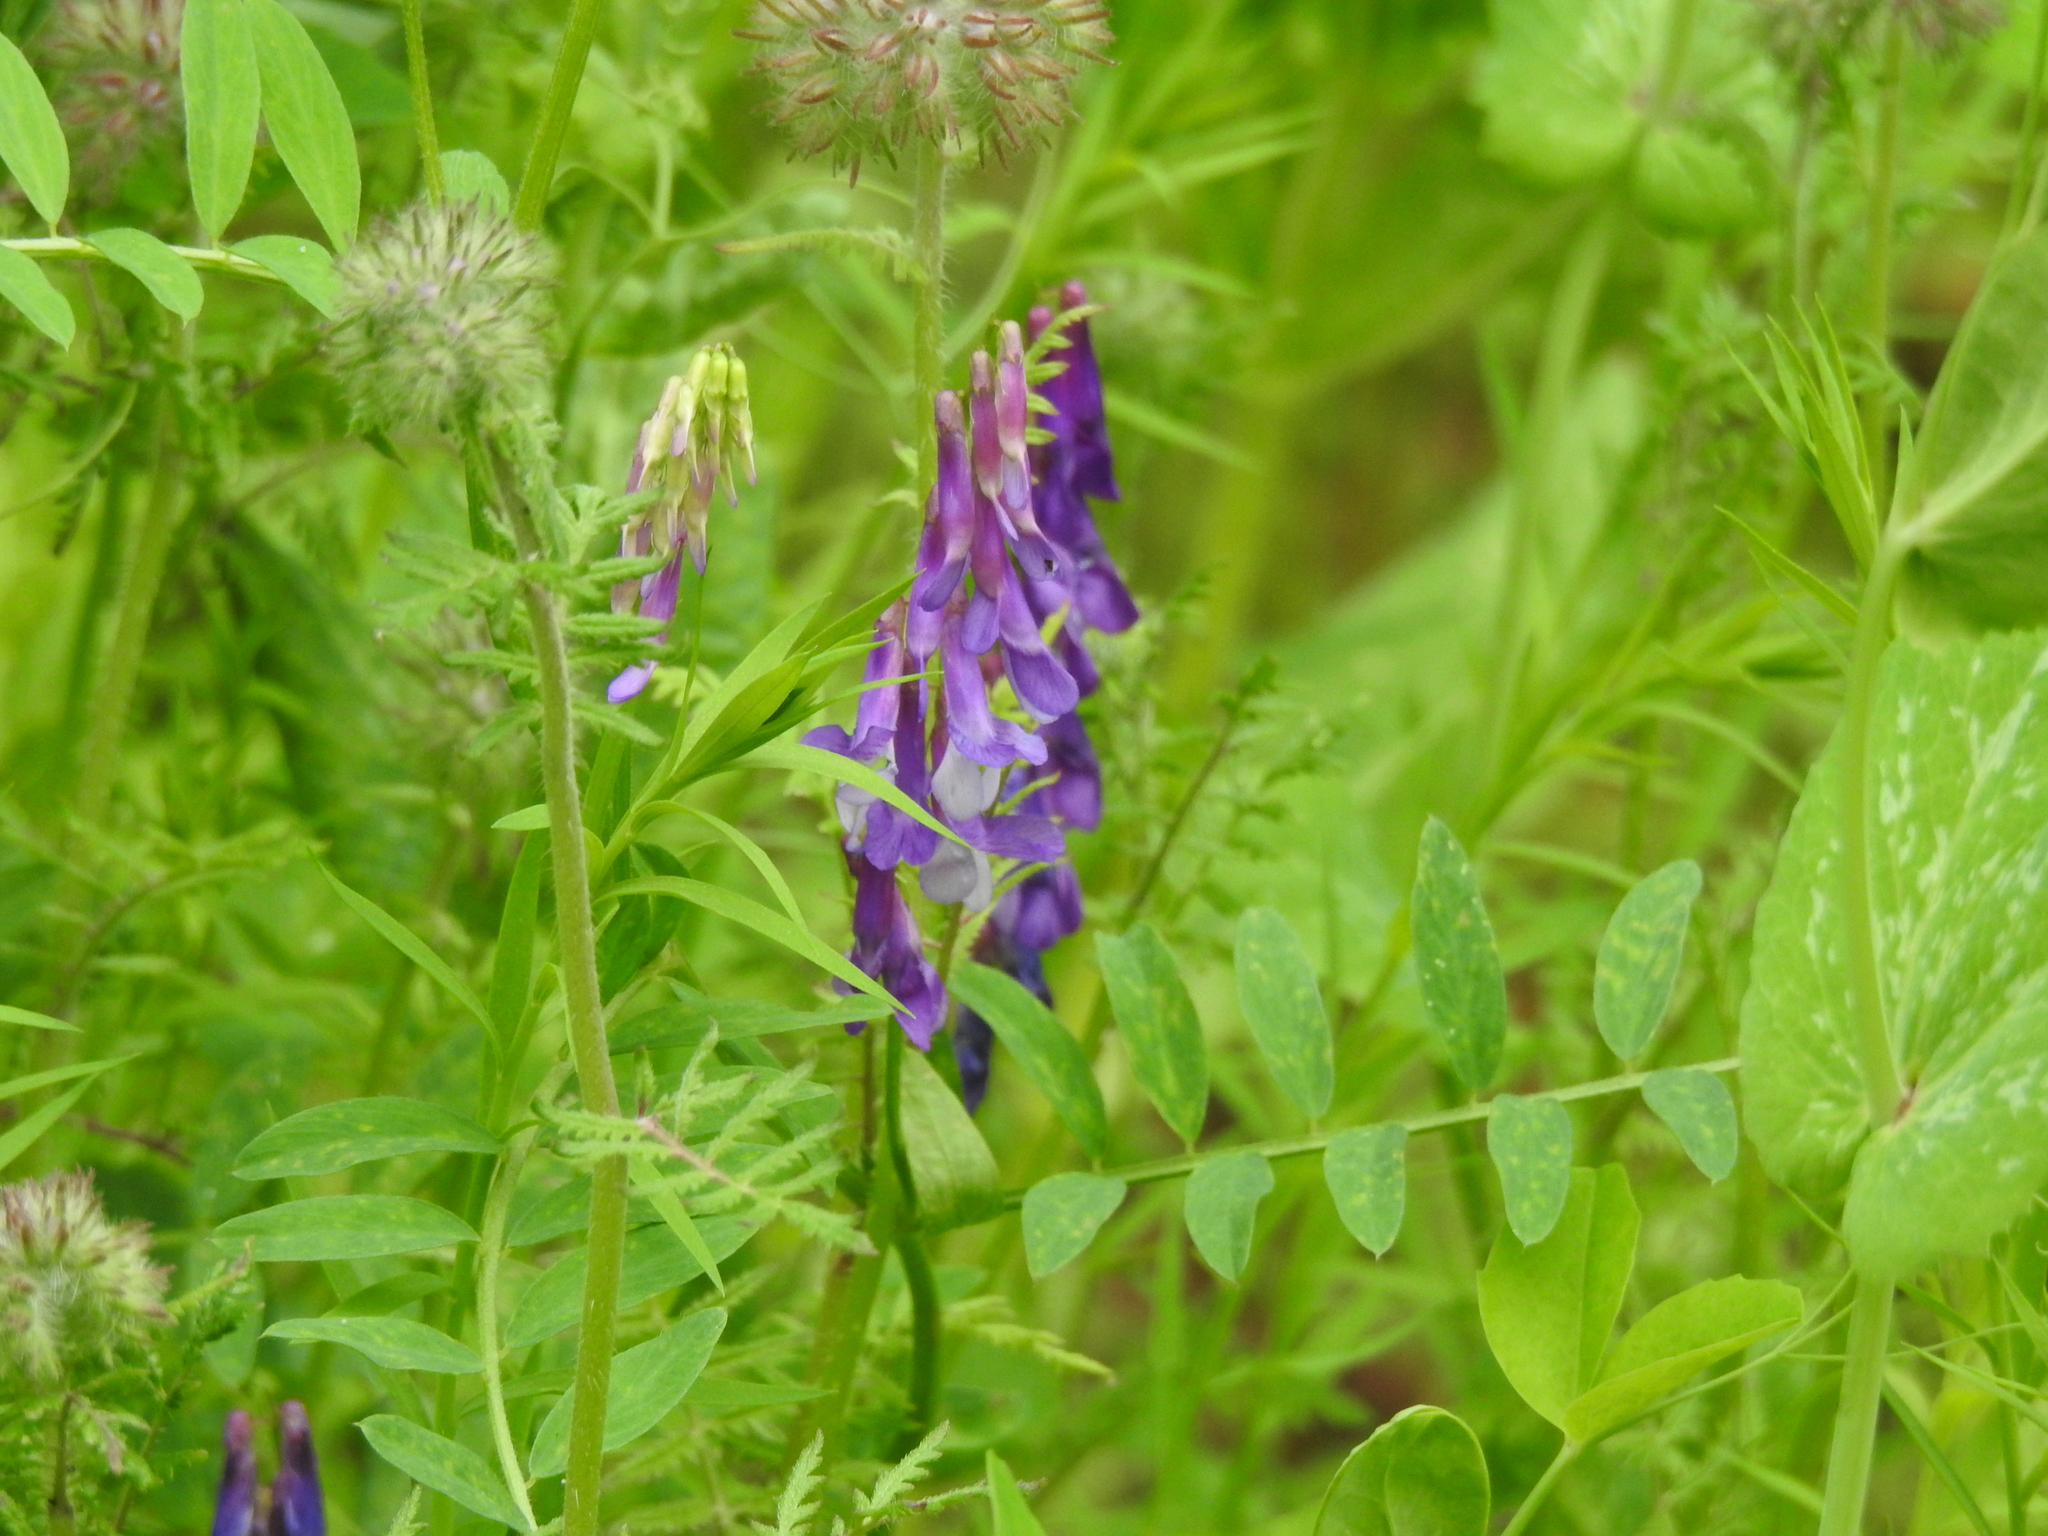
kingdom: Plantae
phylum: Tracheophyta
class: Magnoliopsida
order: Fabales
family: Fabaceae
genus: Vicia
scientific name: Vicia villosa
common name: Fodder vetch
